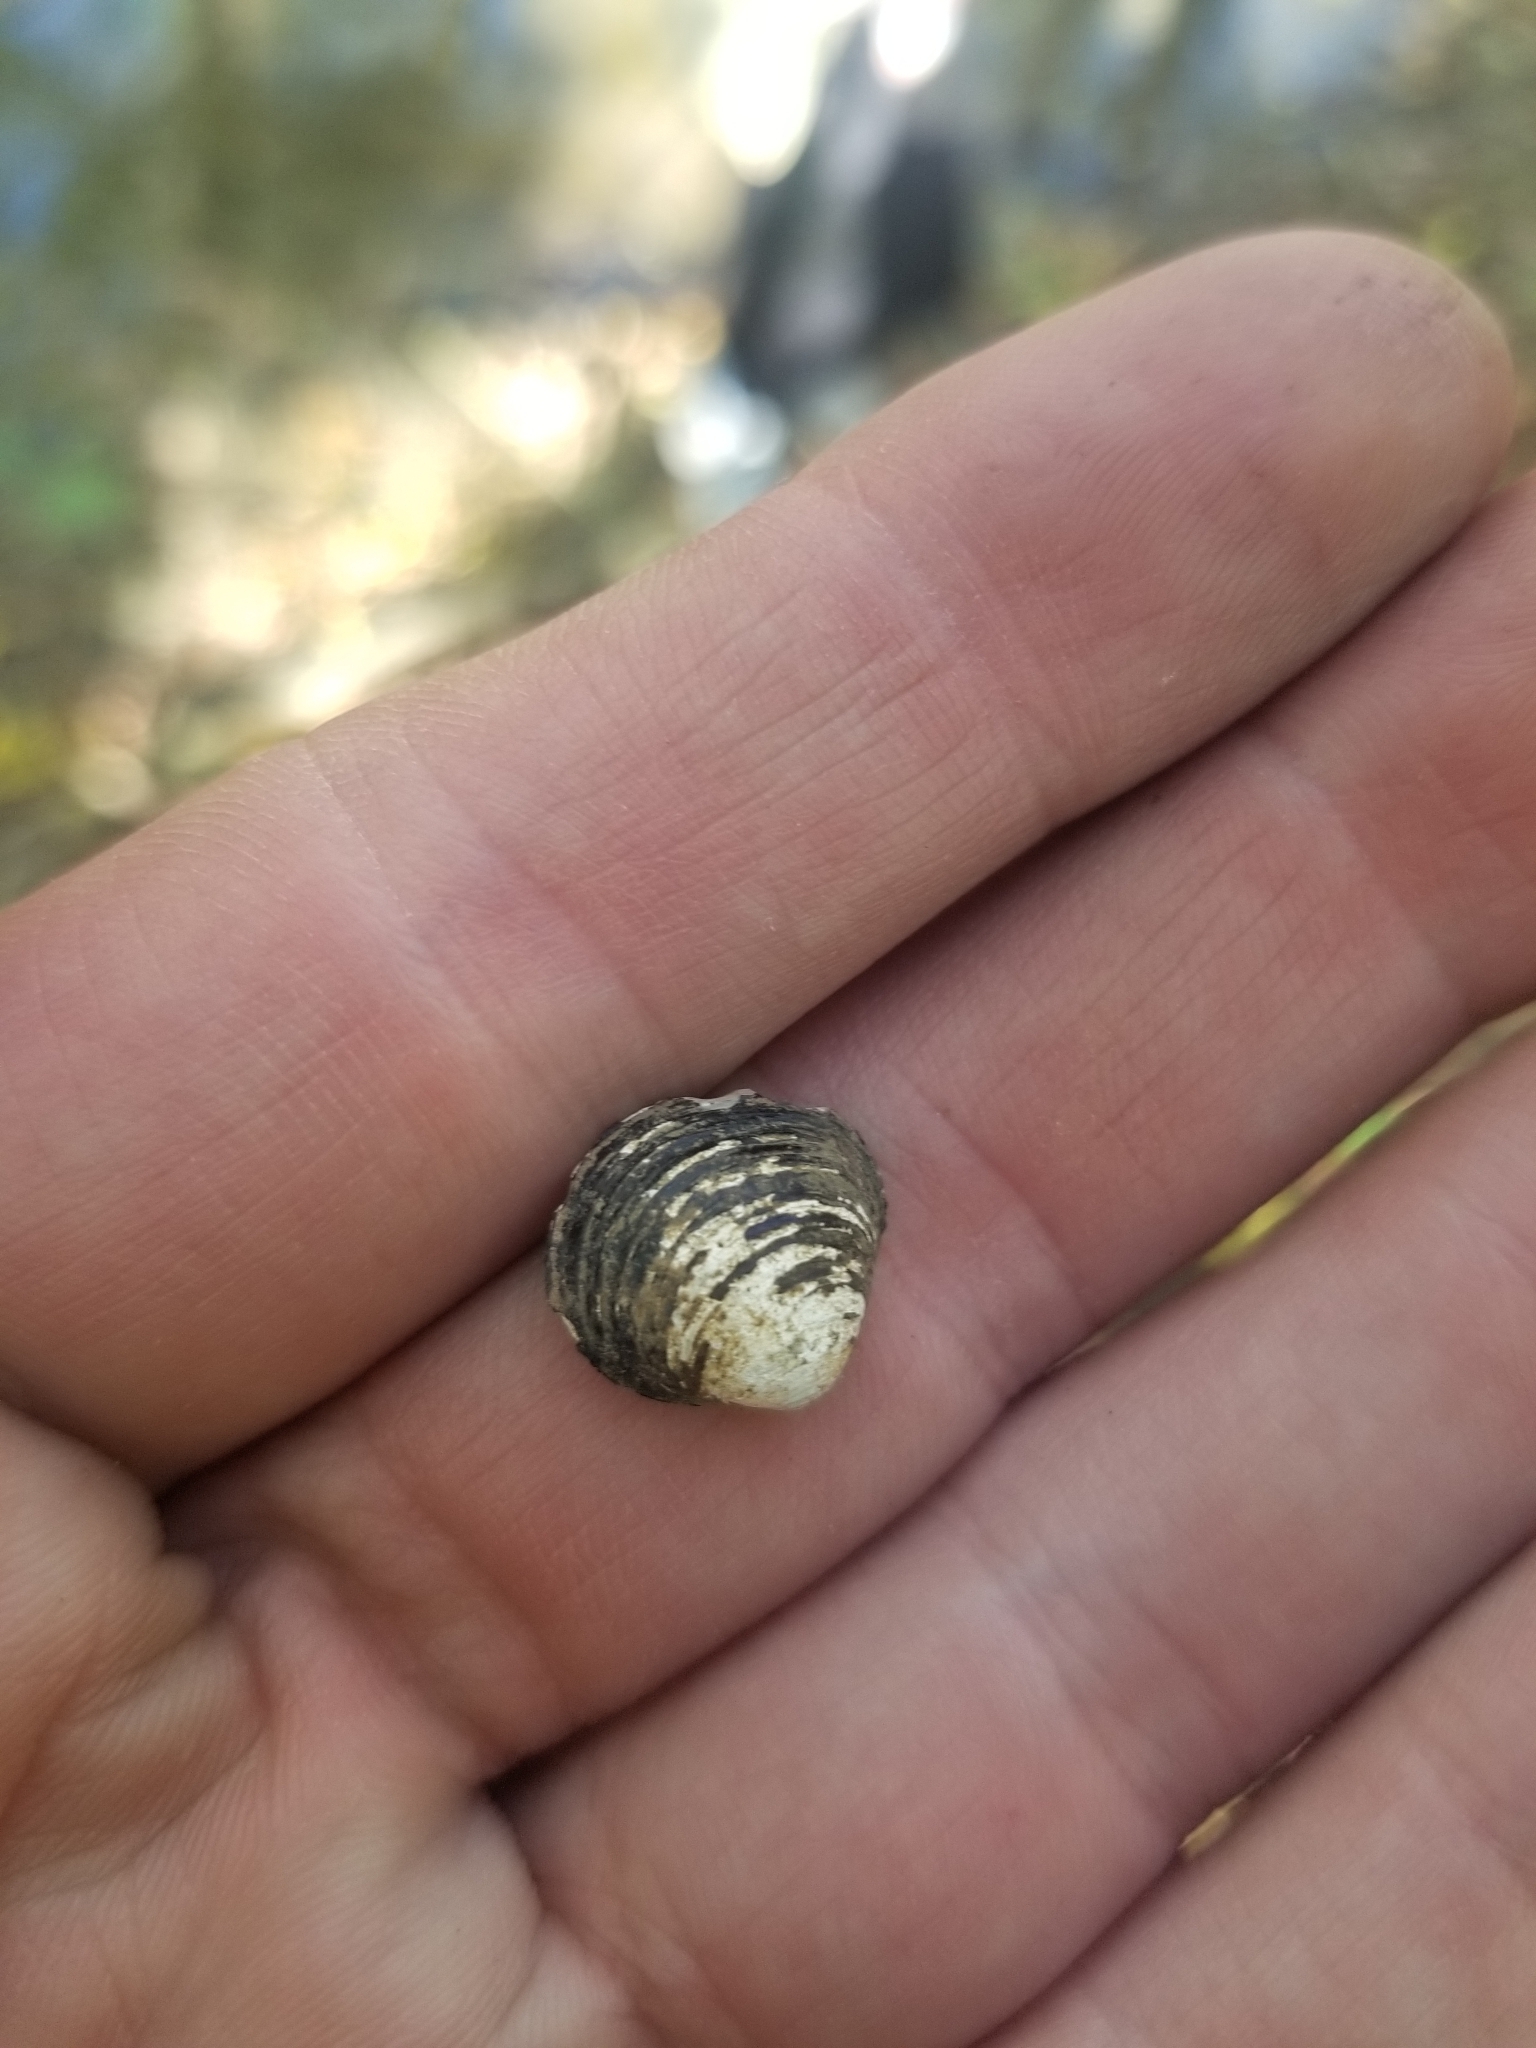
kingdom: Animalia
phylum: Mollusca
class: Bivalvia
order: Venerida
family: Cyrenidae
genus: Corbicula
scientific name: Corbicula fluminea
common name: Asian clam
